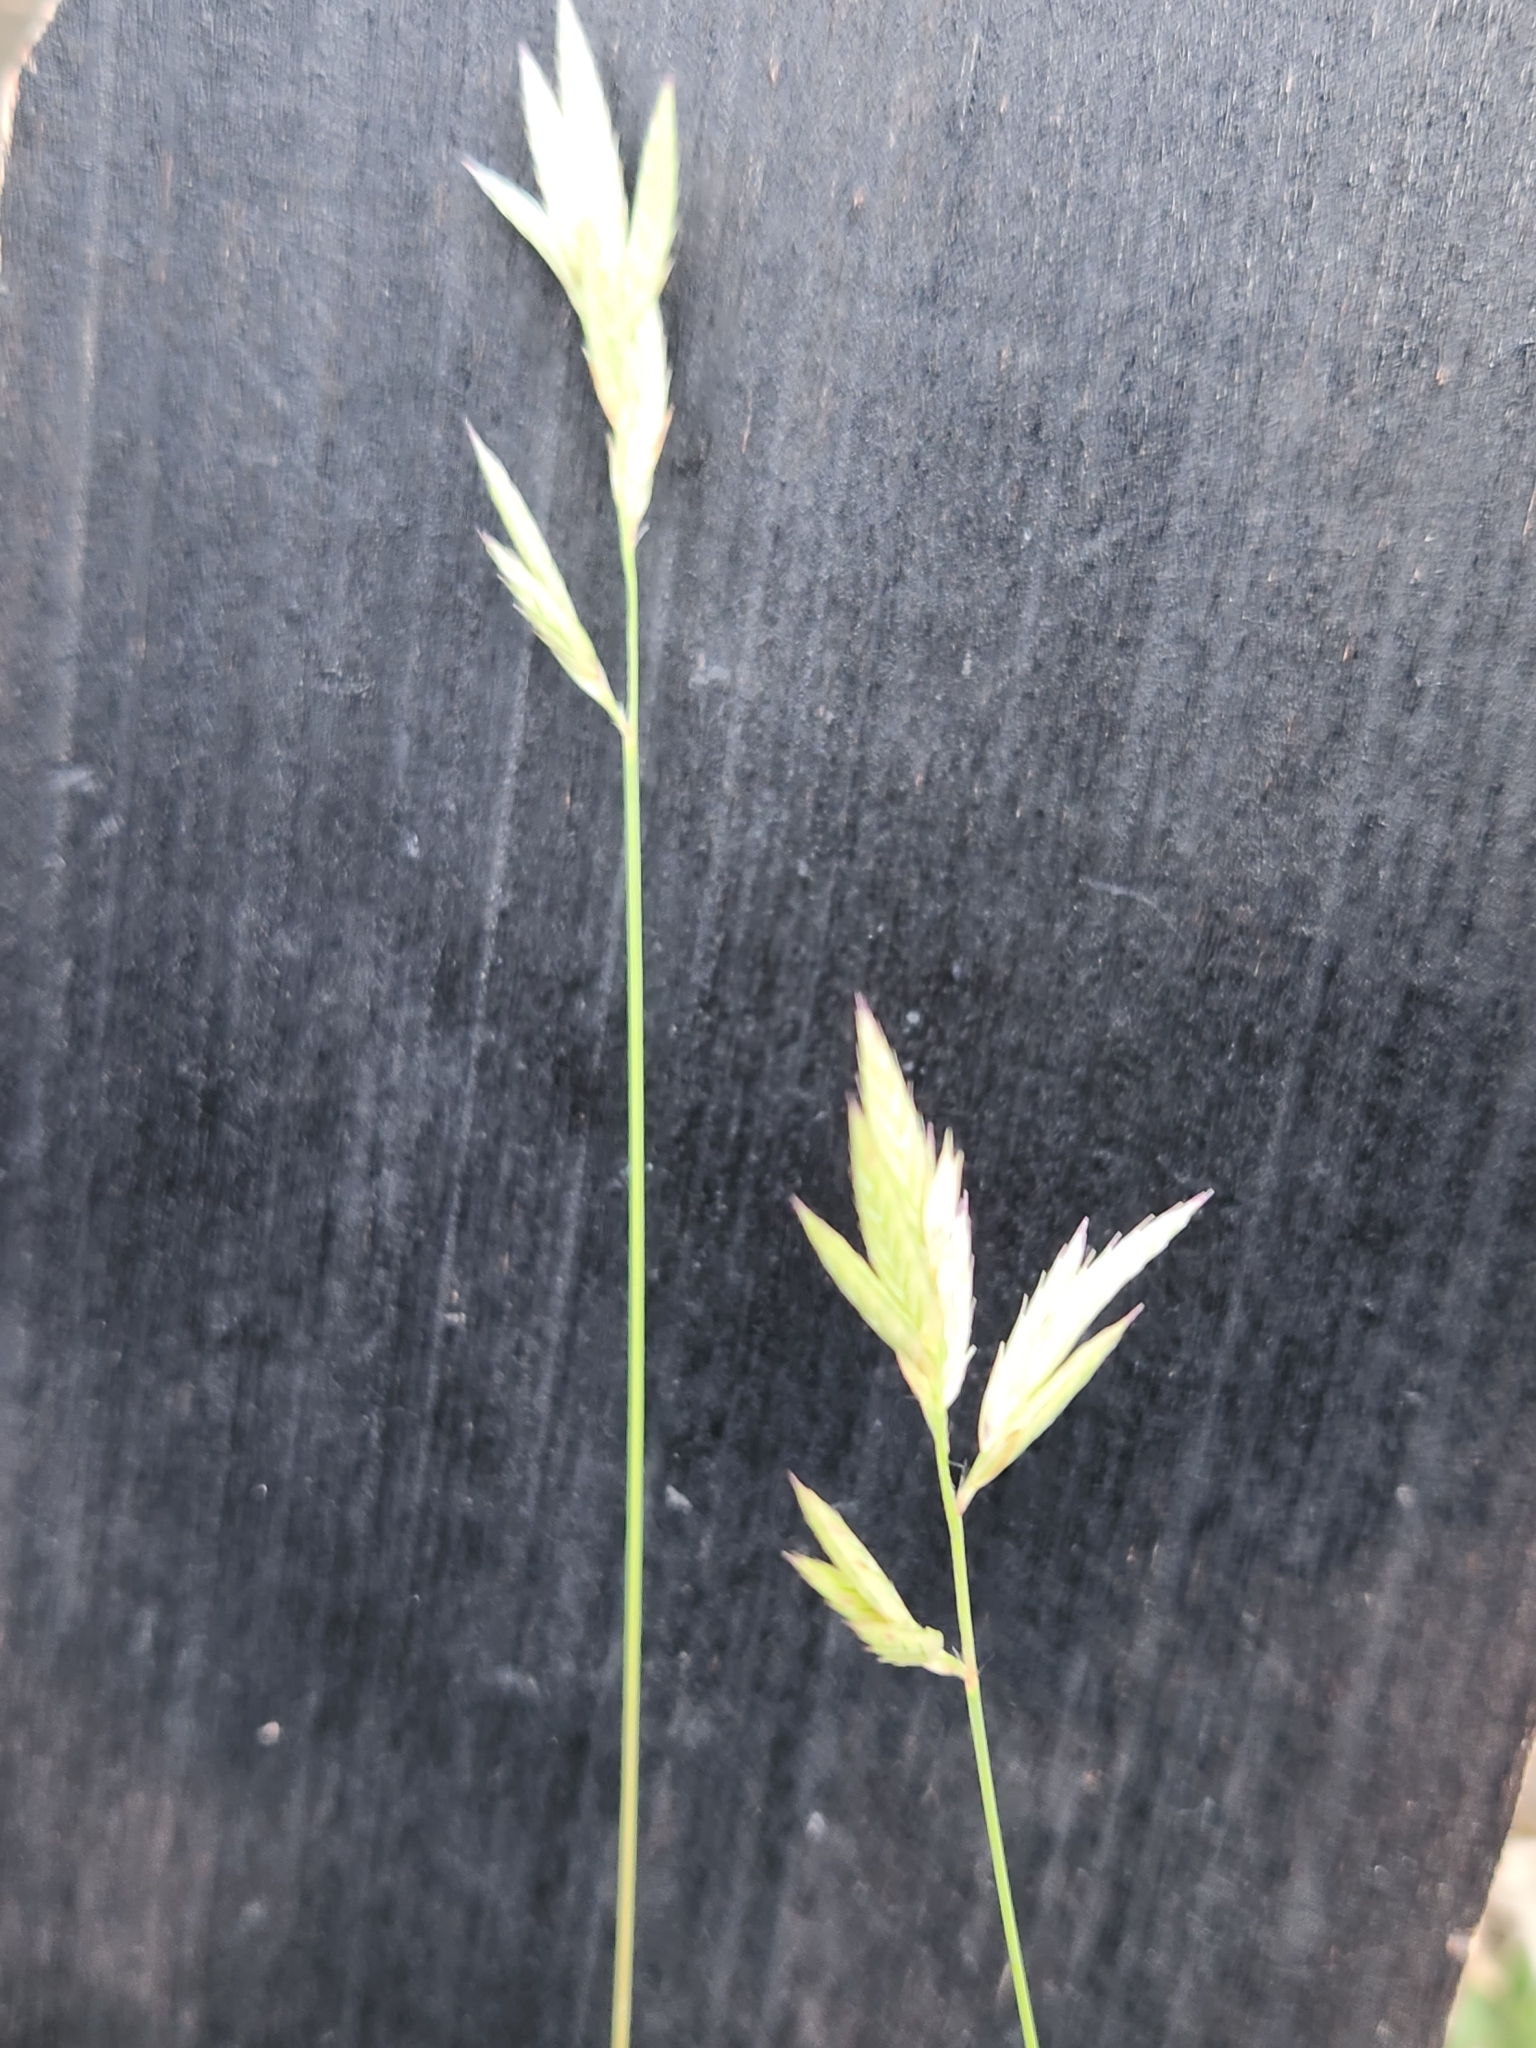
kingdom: Plantae
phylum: Tracheophyta
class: Liliopsida
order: Poales
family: Poaceae
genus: Erioneuron
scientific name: Erioneuron pilosum
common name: Hairy woolly grass
